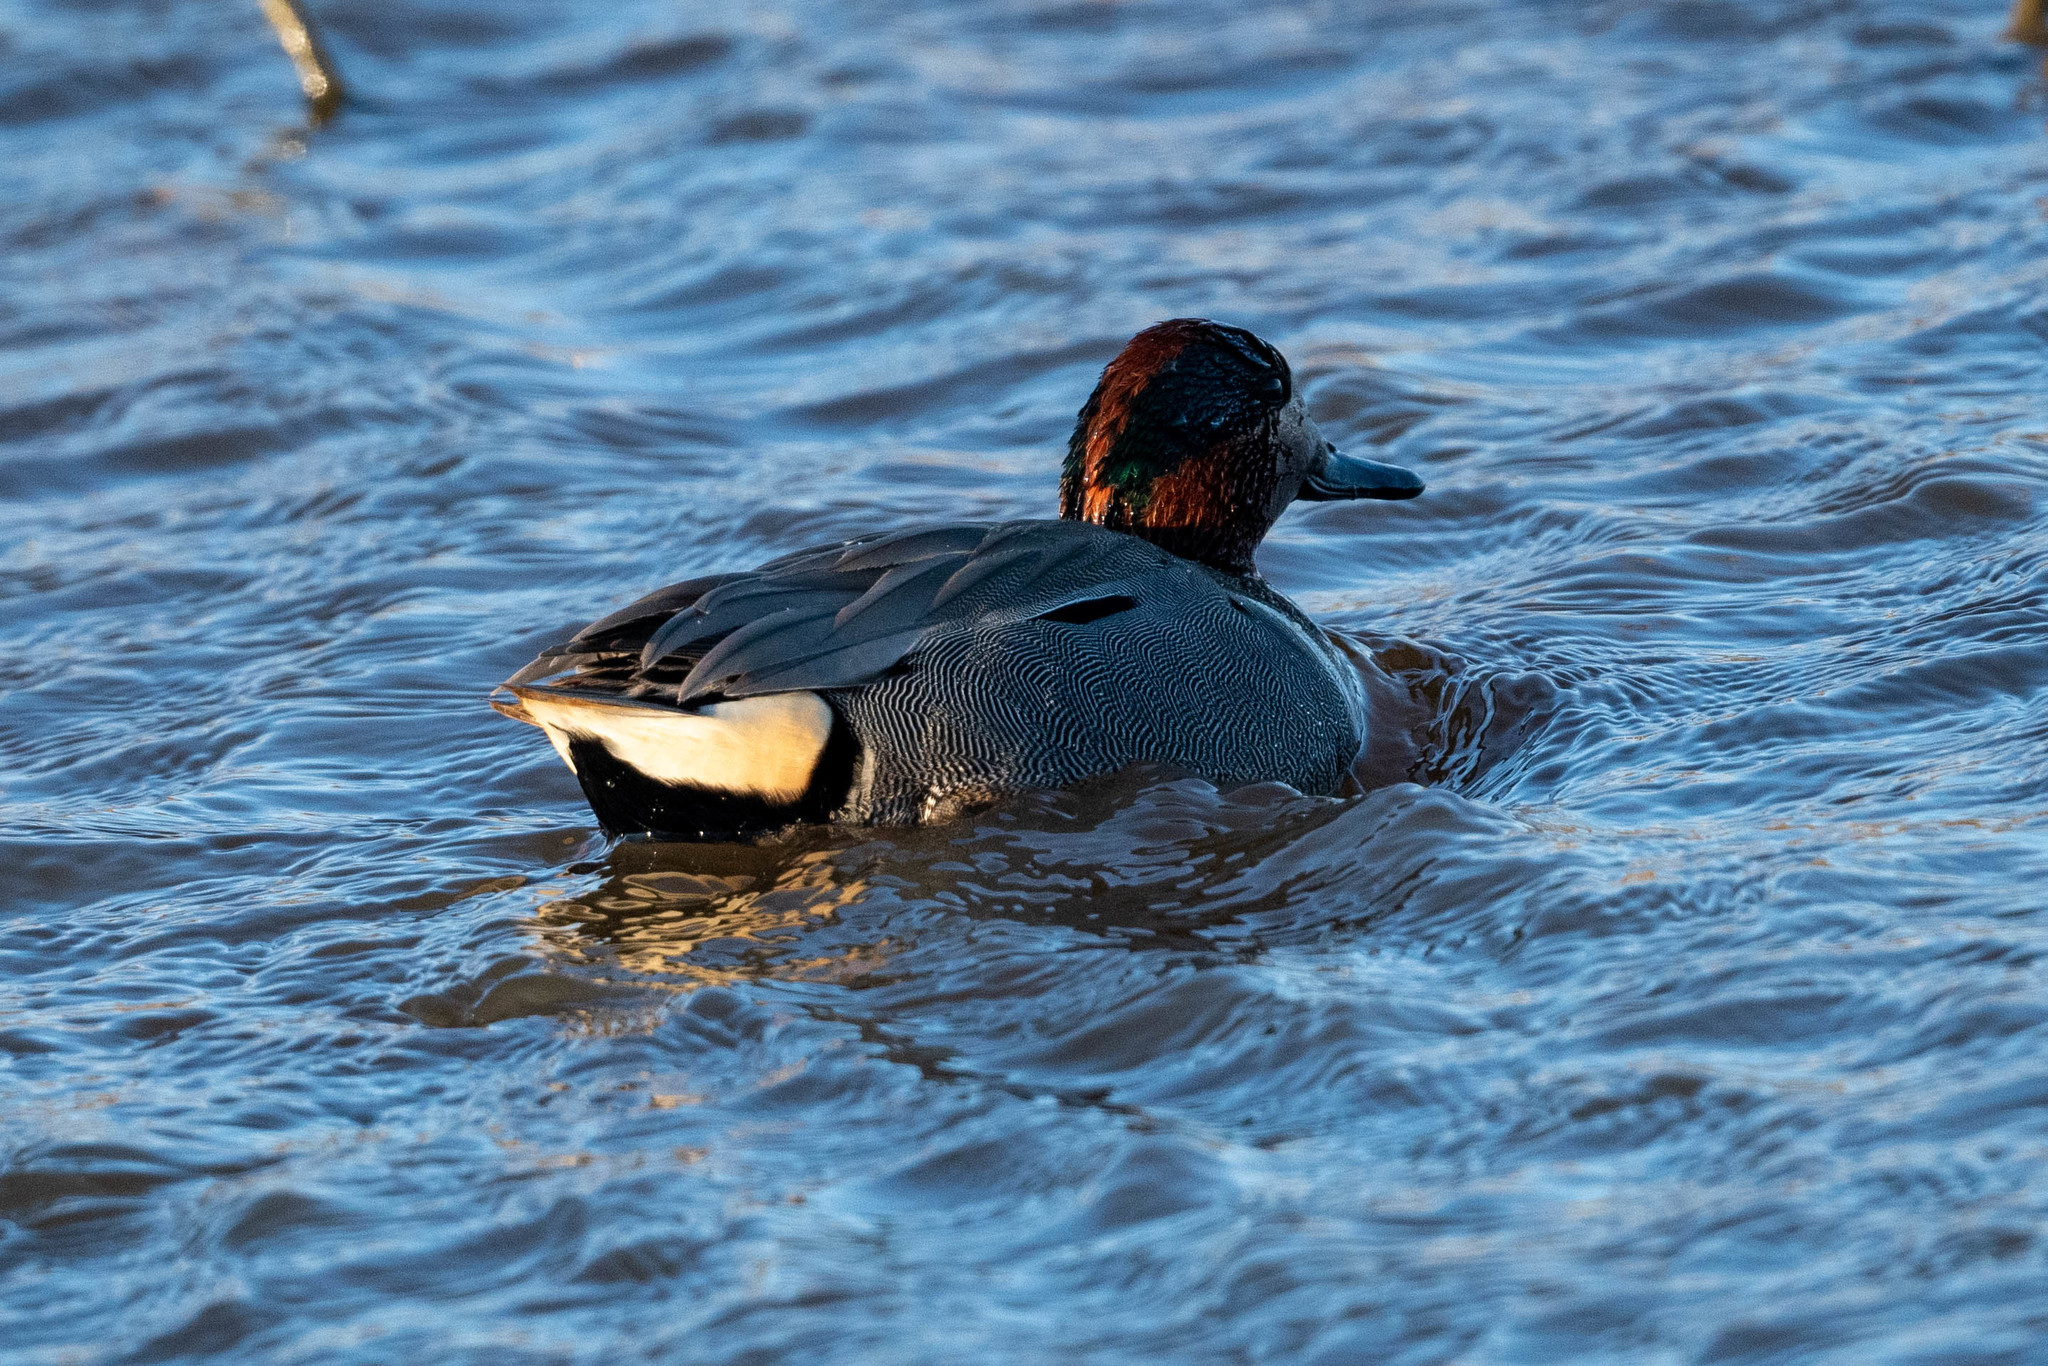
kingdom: Animalia
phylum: Chordata
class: Aves
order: Anseriformes
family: Anatidae
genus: Anas
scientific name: Anas crecca
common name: Eurasian teal
